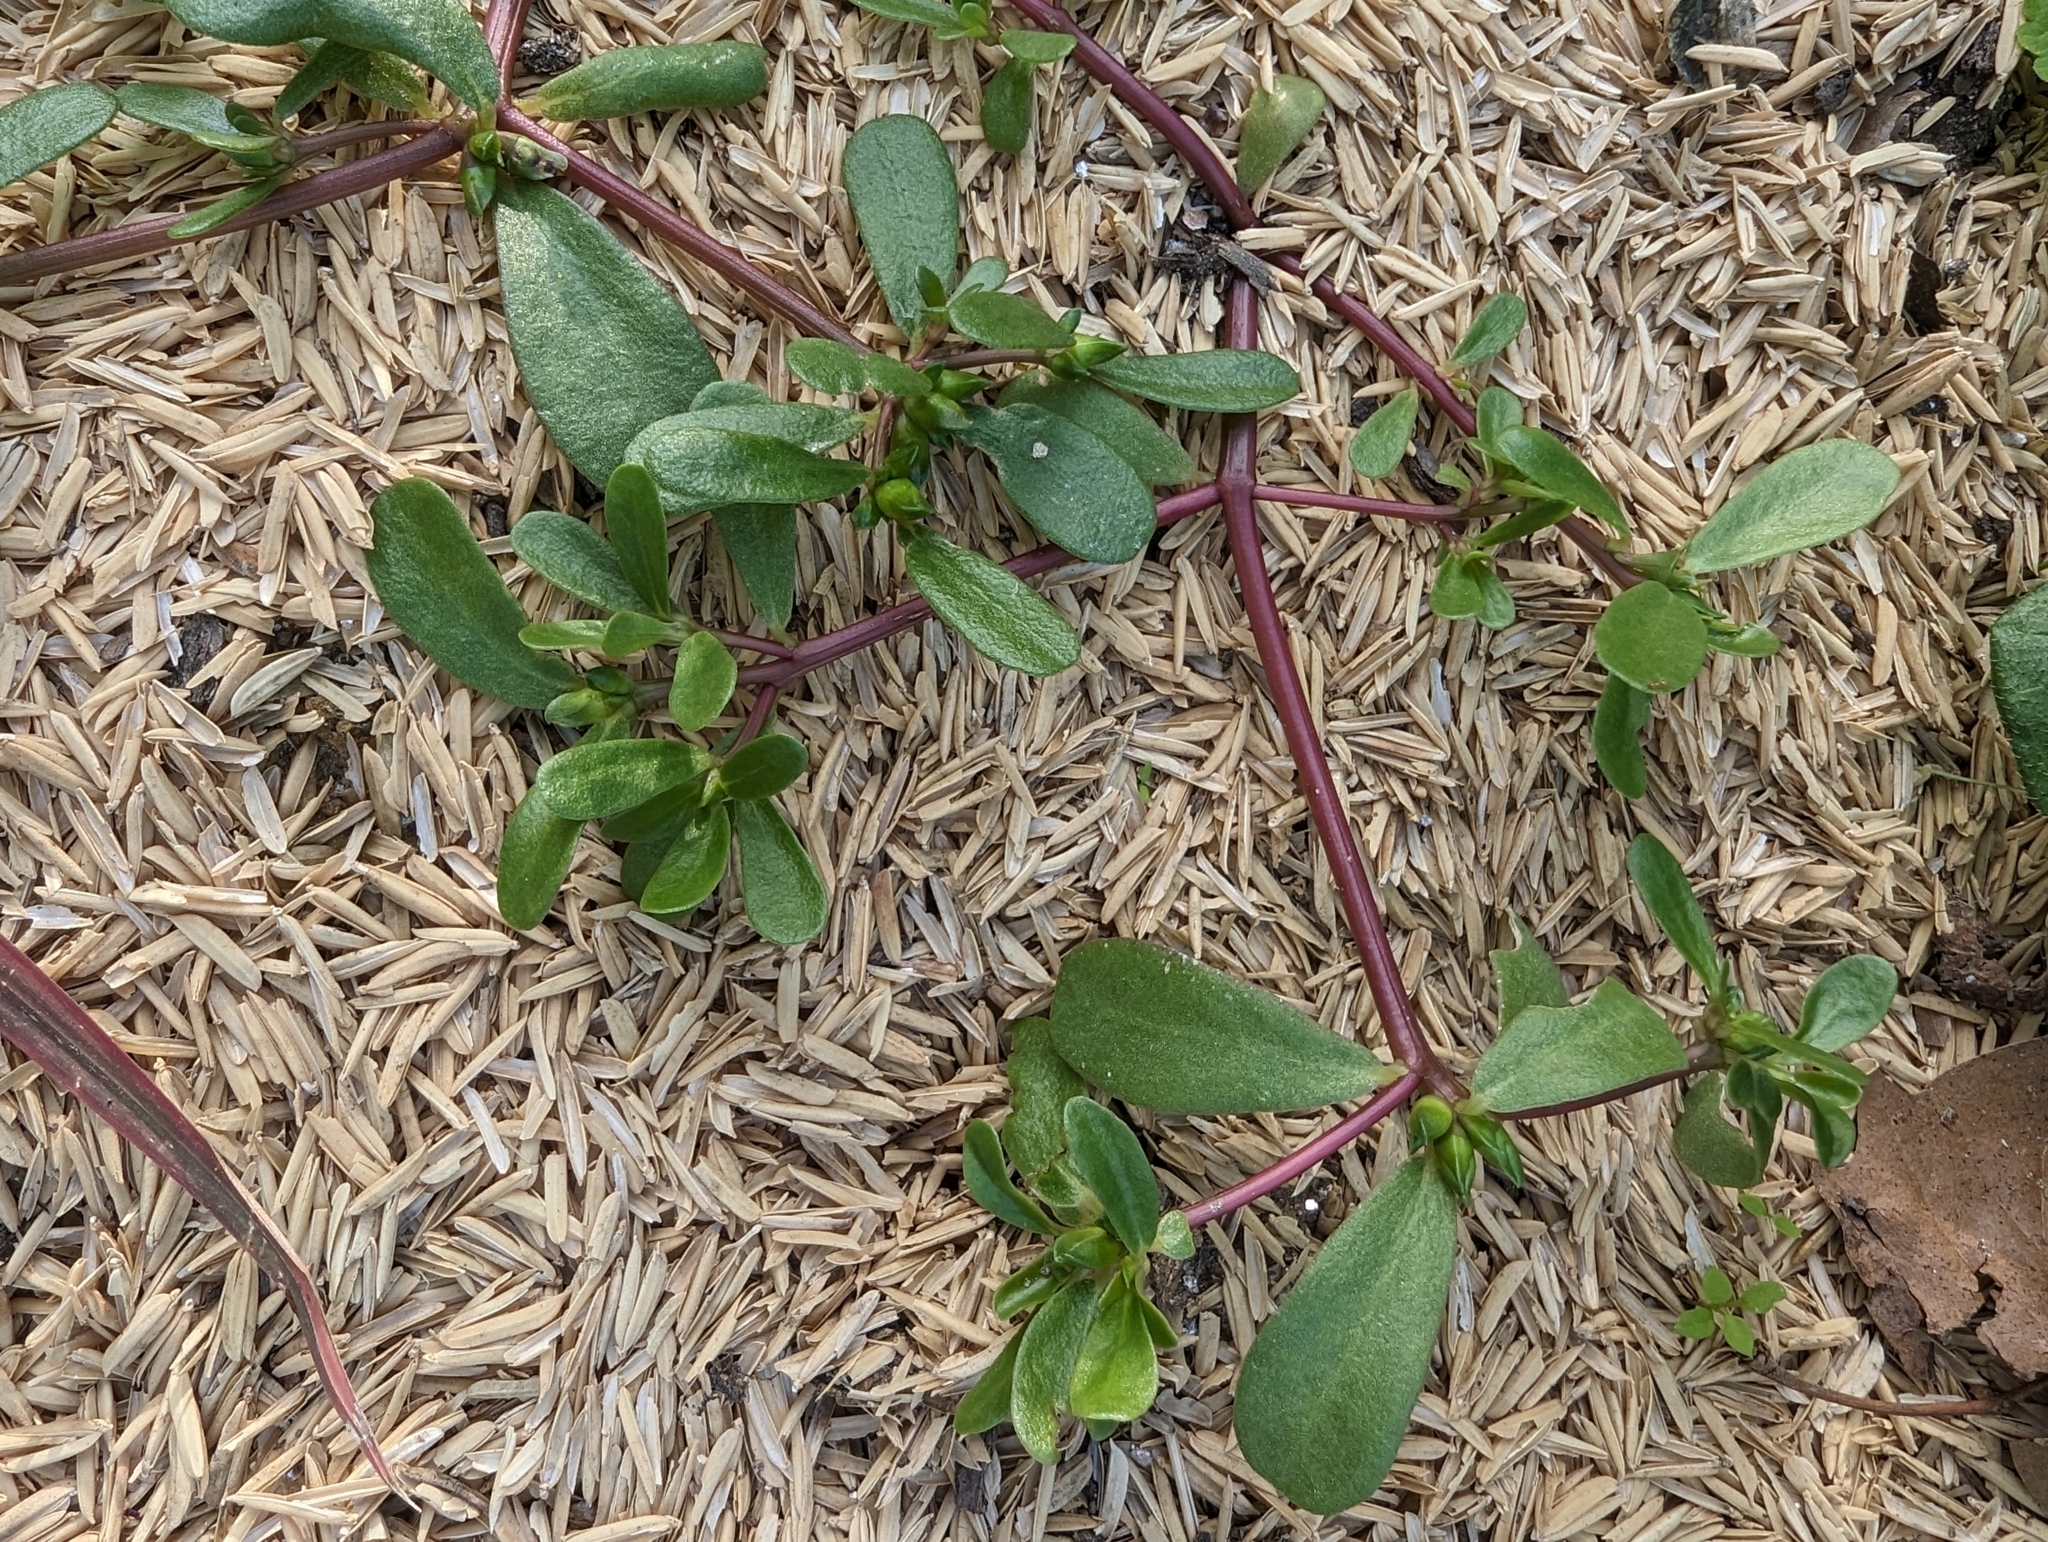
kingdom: Plantae
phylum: Tracheophyta
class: Magnoliopsida
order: Caryophyllales
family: Portulacaceae
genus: Portulaca
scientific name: Portulaca oleracea
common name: Common purslane
